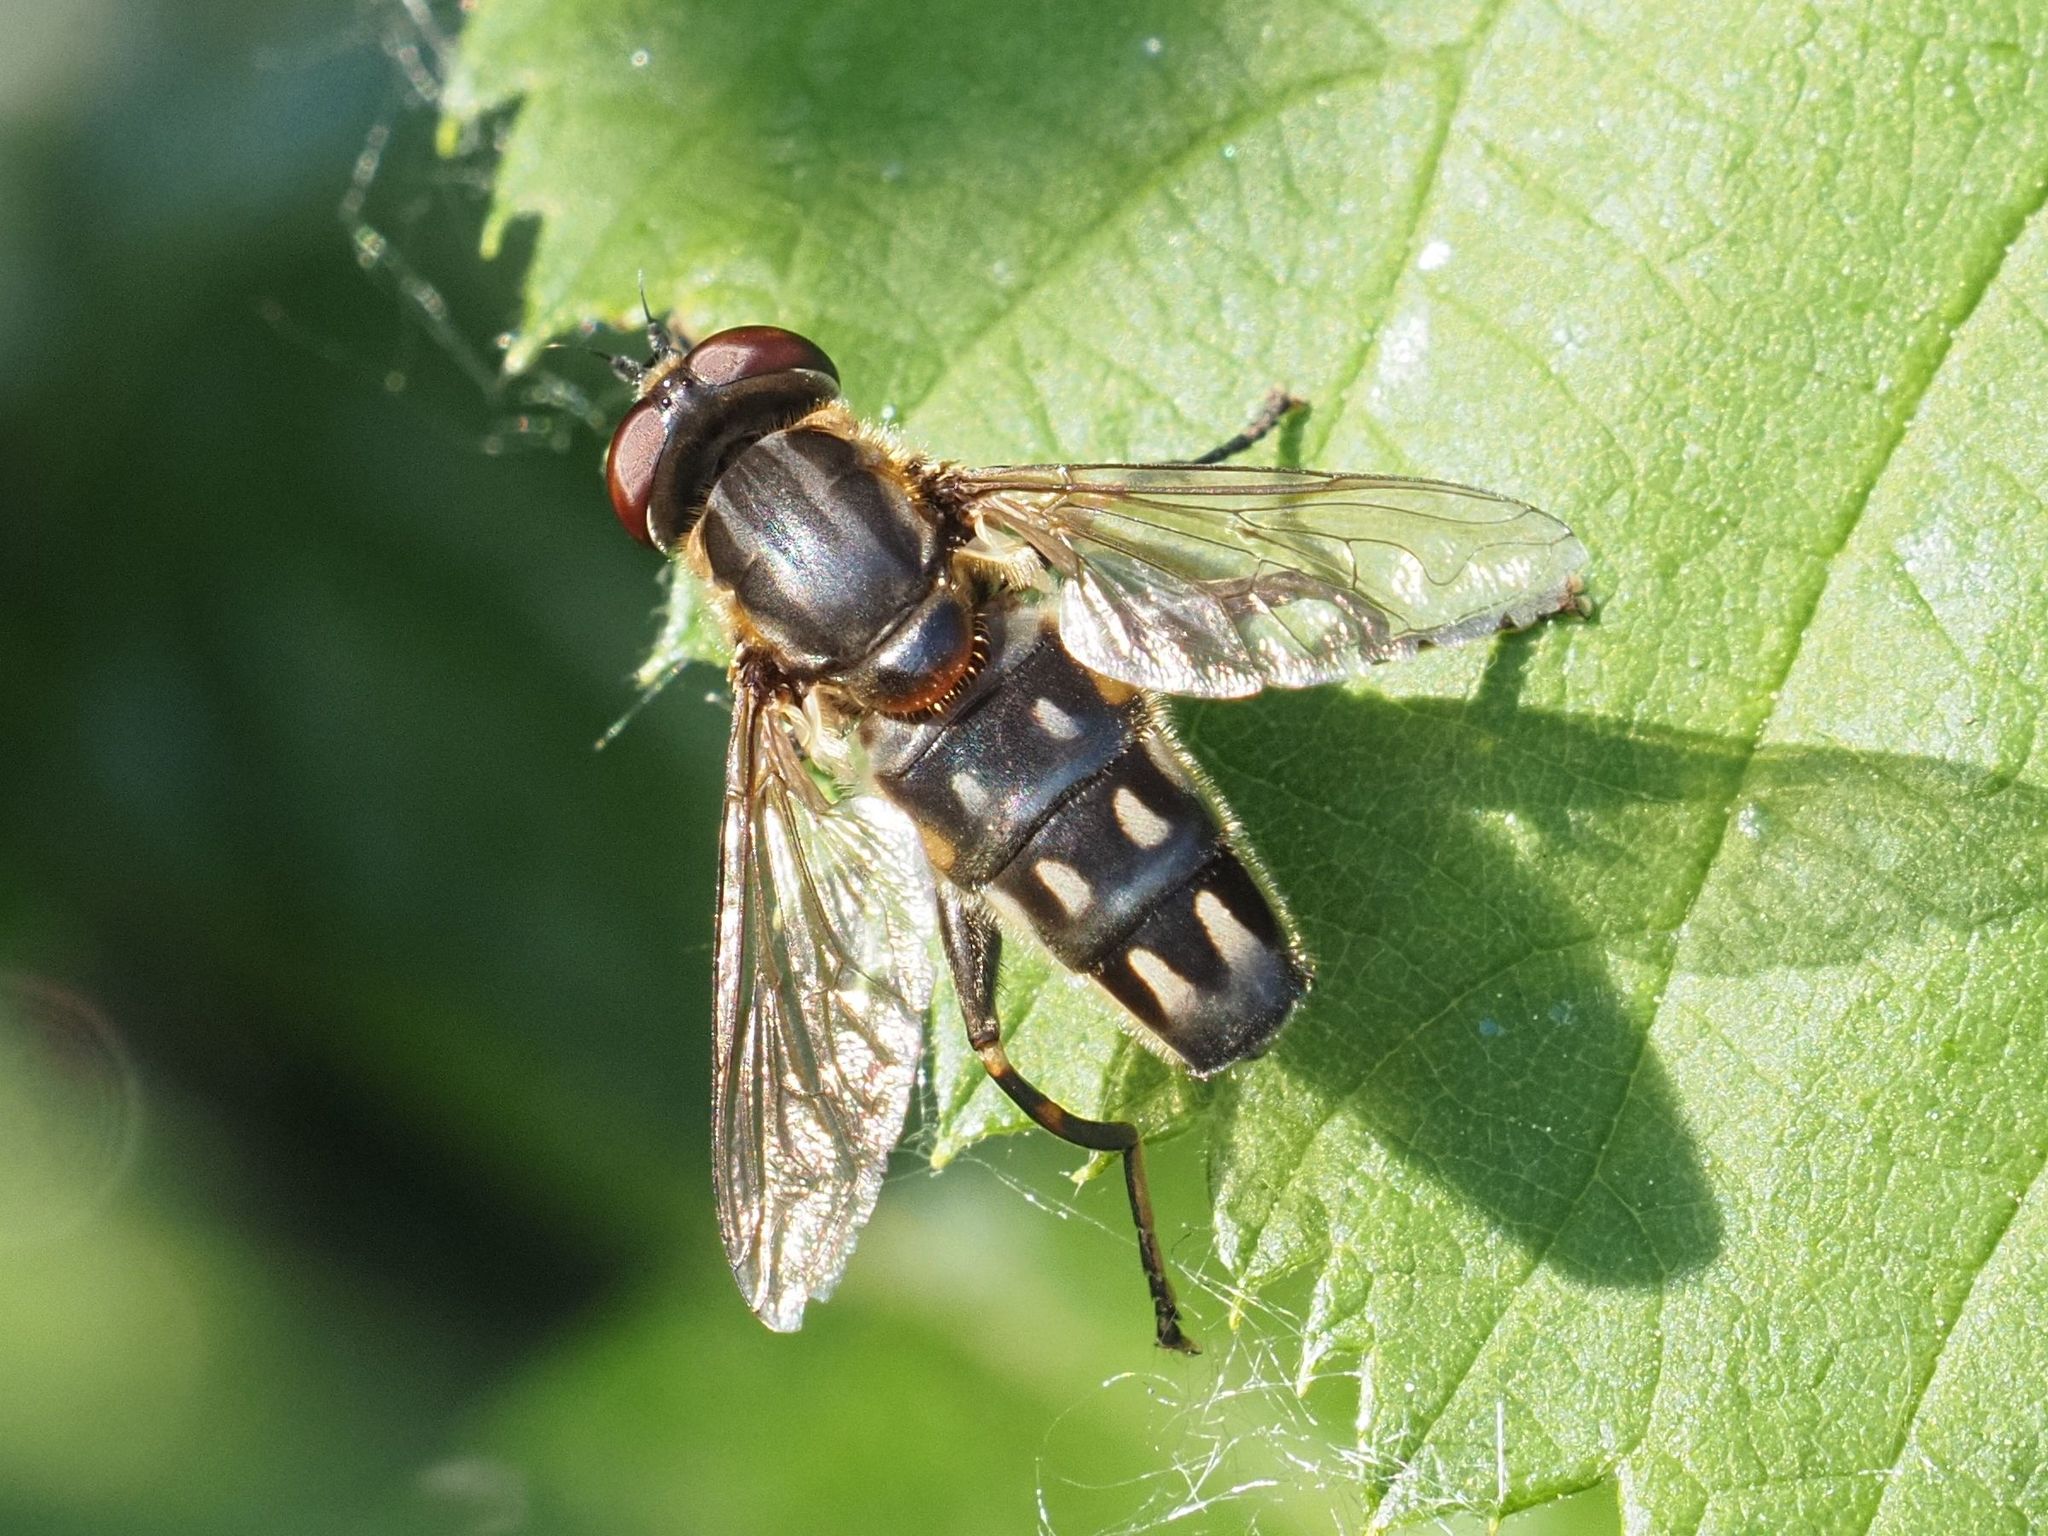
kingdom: Animalia
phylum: Arthropoda
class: Insecta
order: Diptera
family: Syrphidae
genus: Lejops
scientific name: Lejops vittatus
